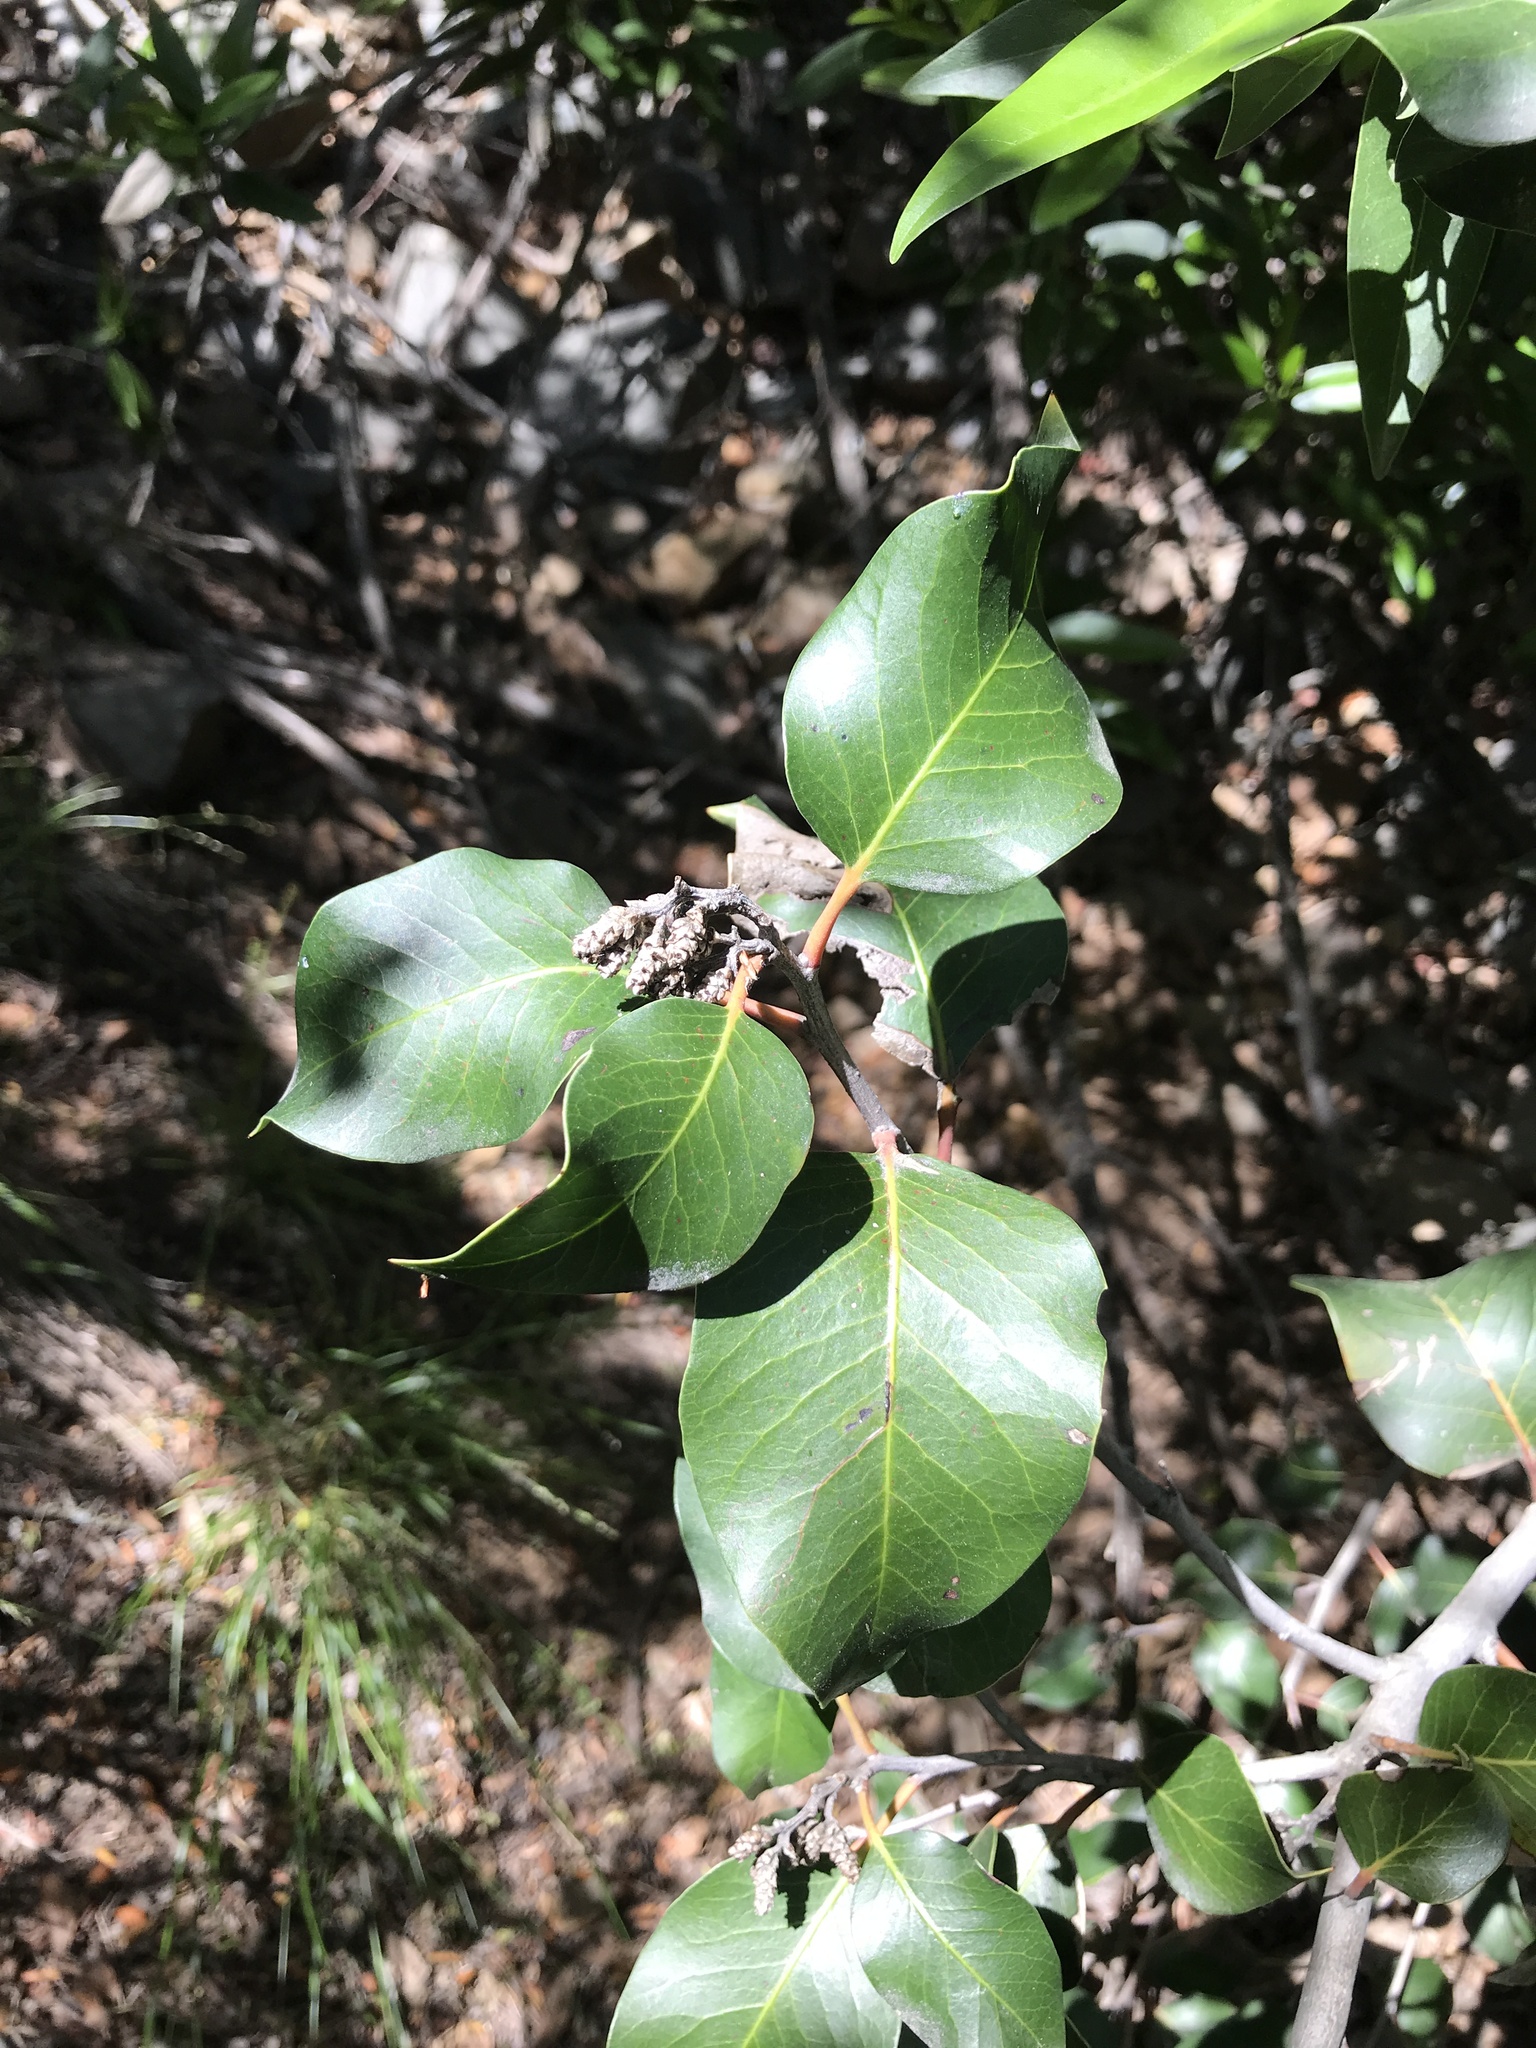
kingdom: Plantae
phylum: Tracheophyta
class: Magnoliopsida
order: Sapindales
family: Anacardiaceae
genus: Rhus
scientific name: Rhus ovata
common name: Sugar sumac
